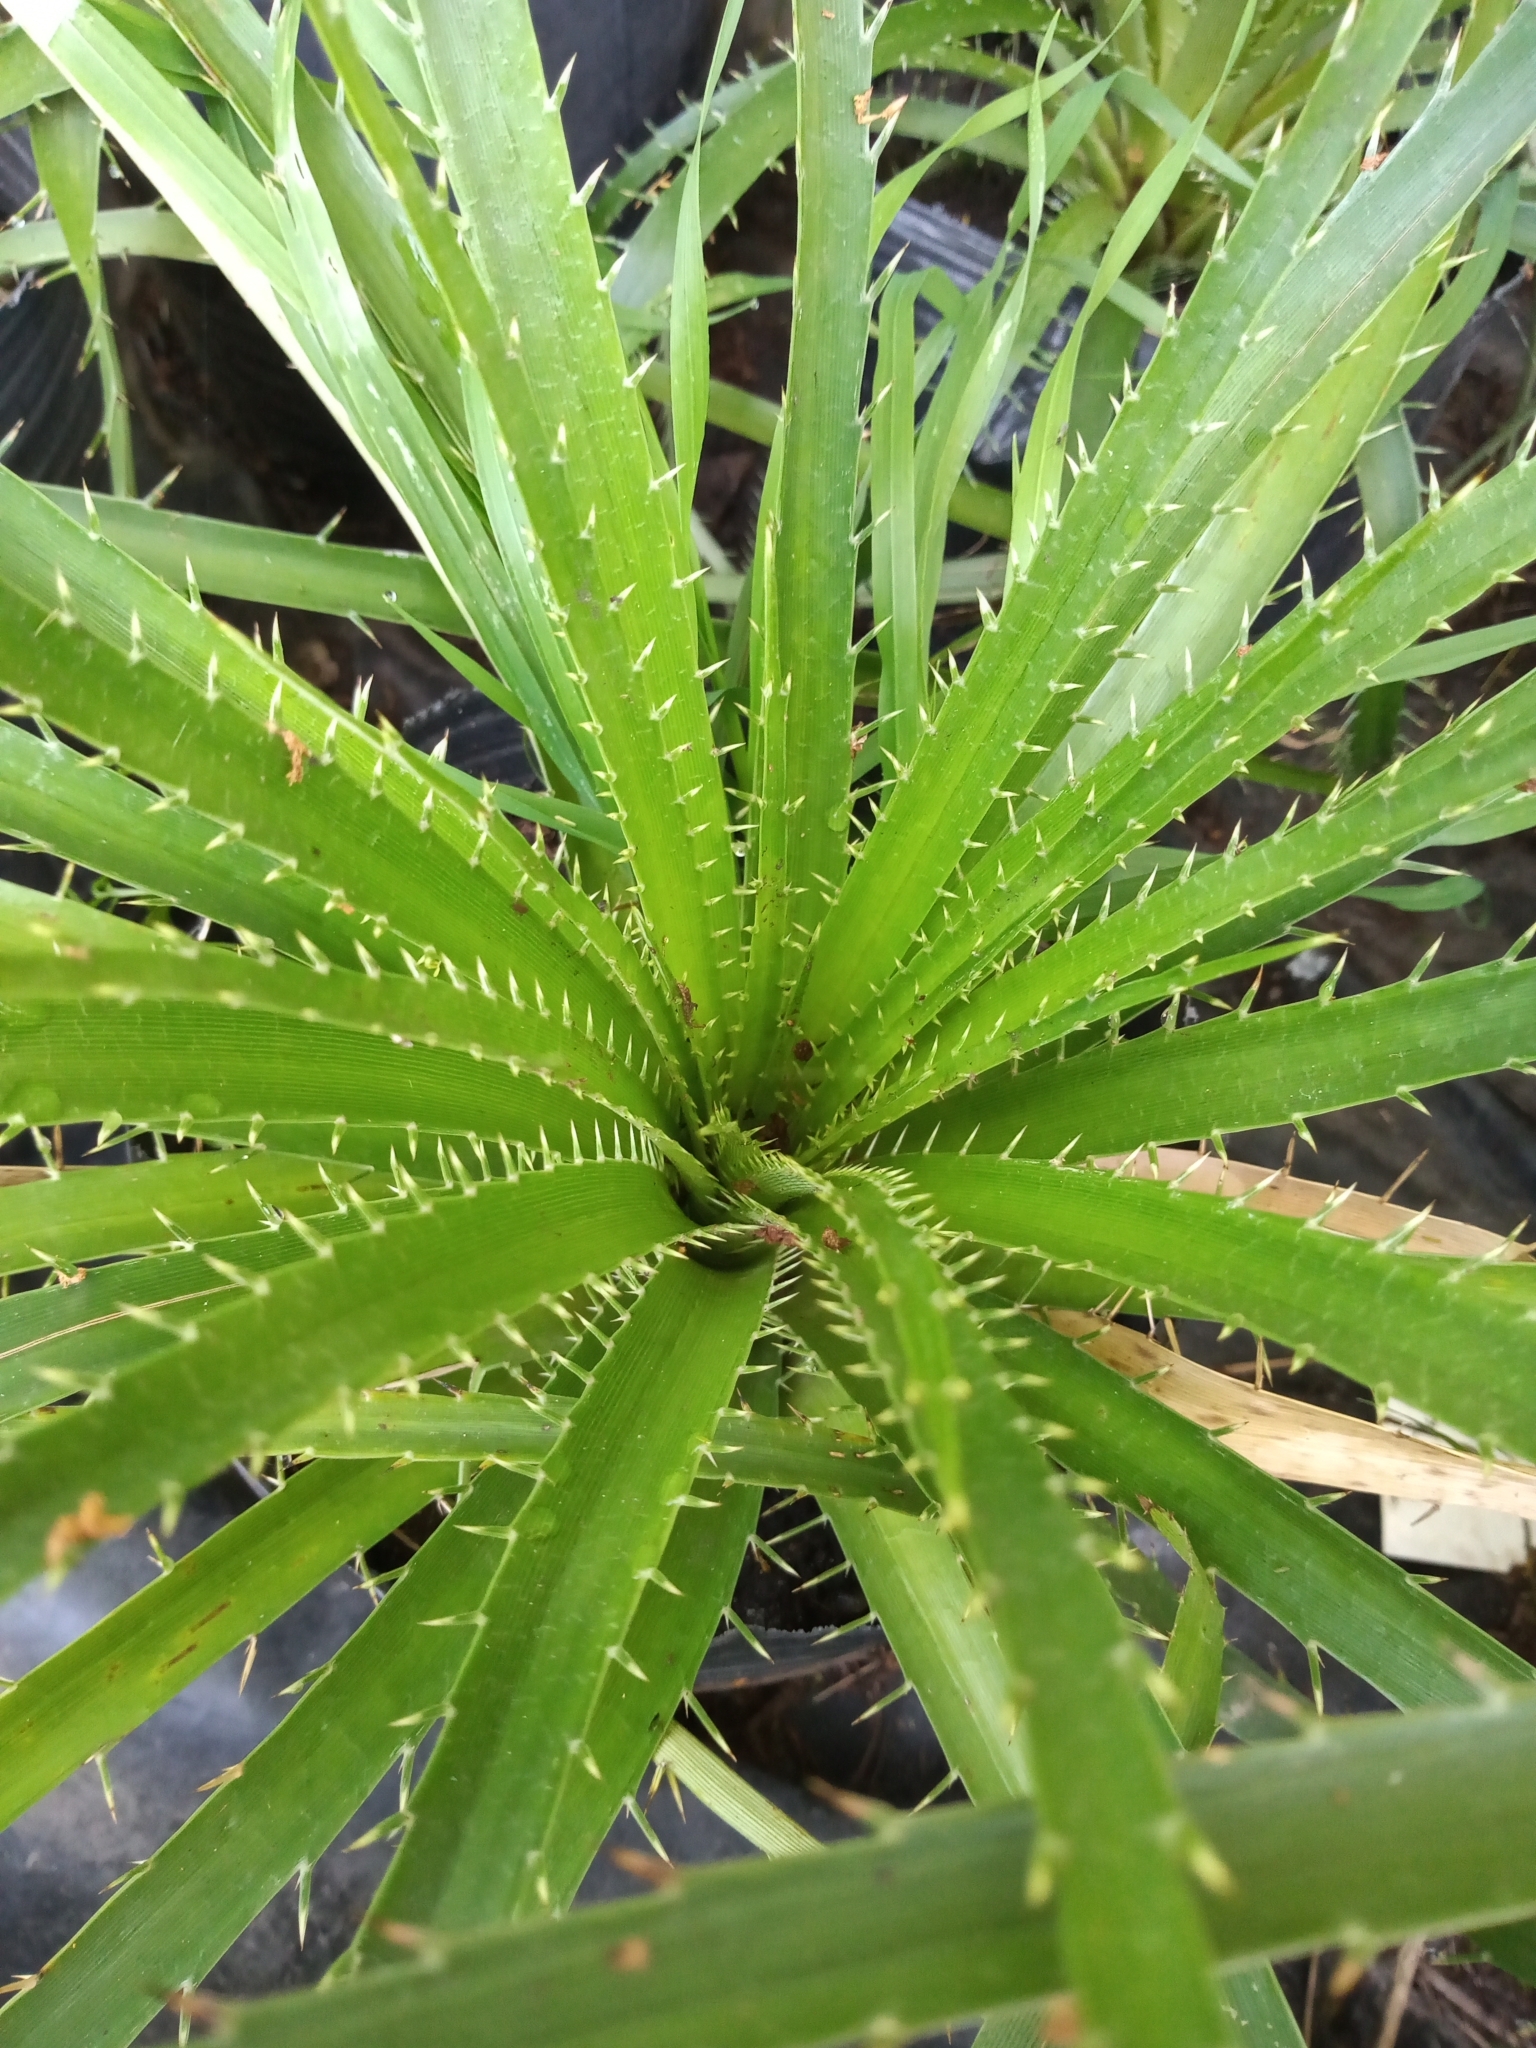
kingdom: Plantae
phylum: Tracheophyta
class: Magnoliopsida
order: Apiales
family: Apiaceae
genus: Eryngium
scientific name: Eryngium humboldtii
